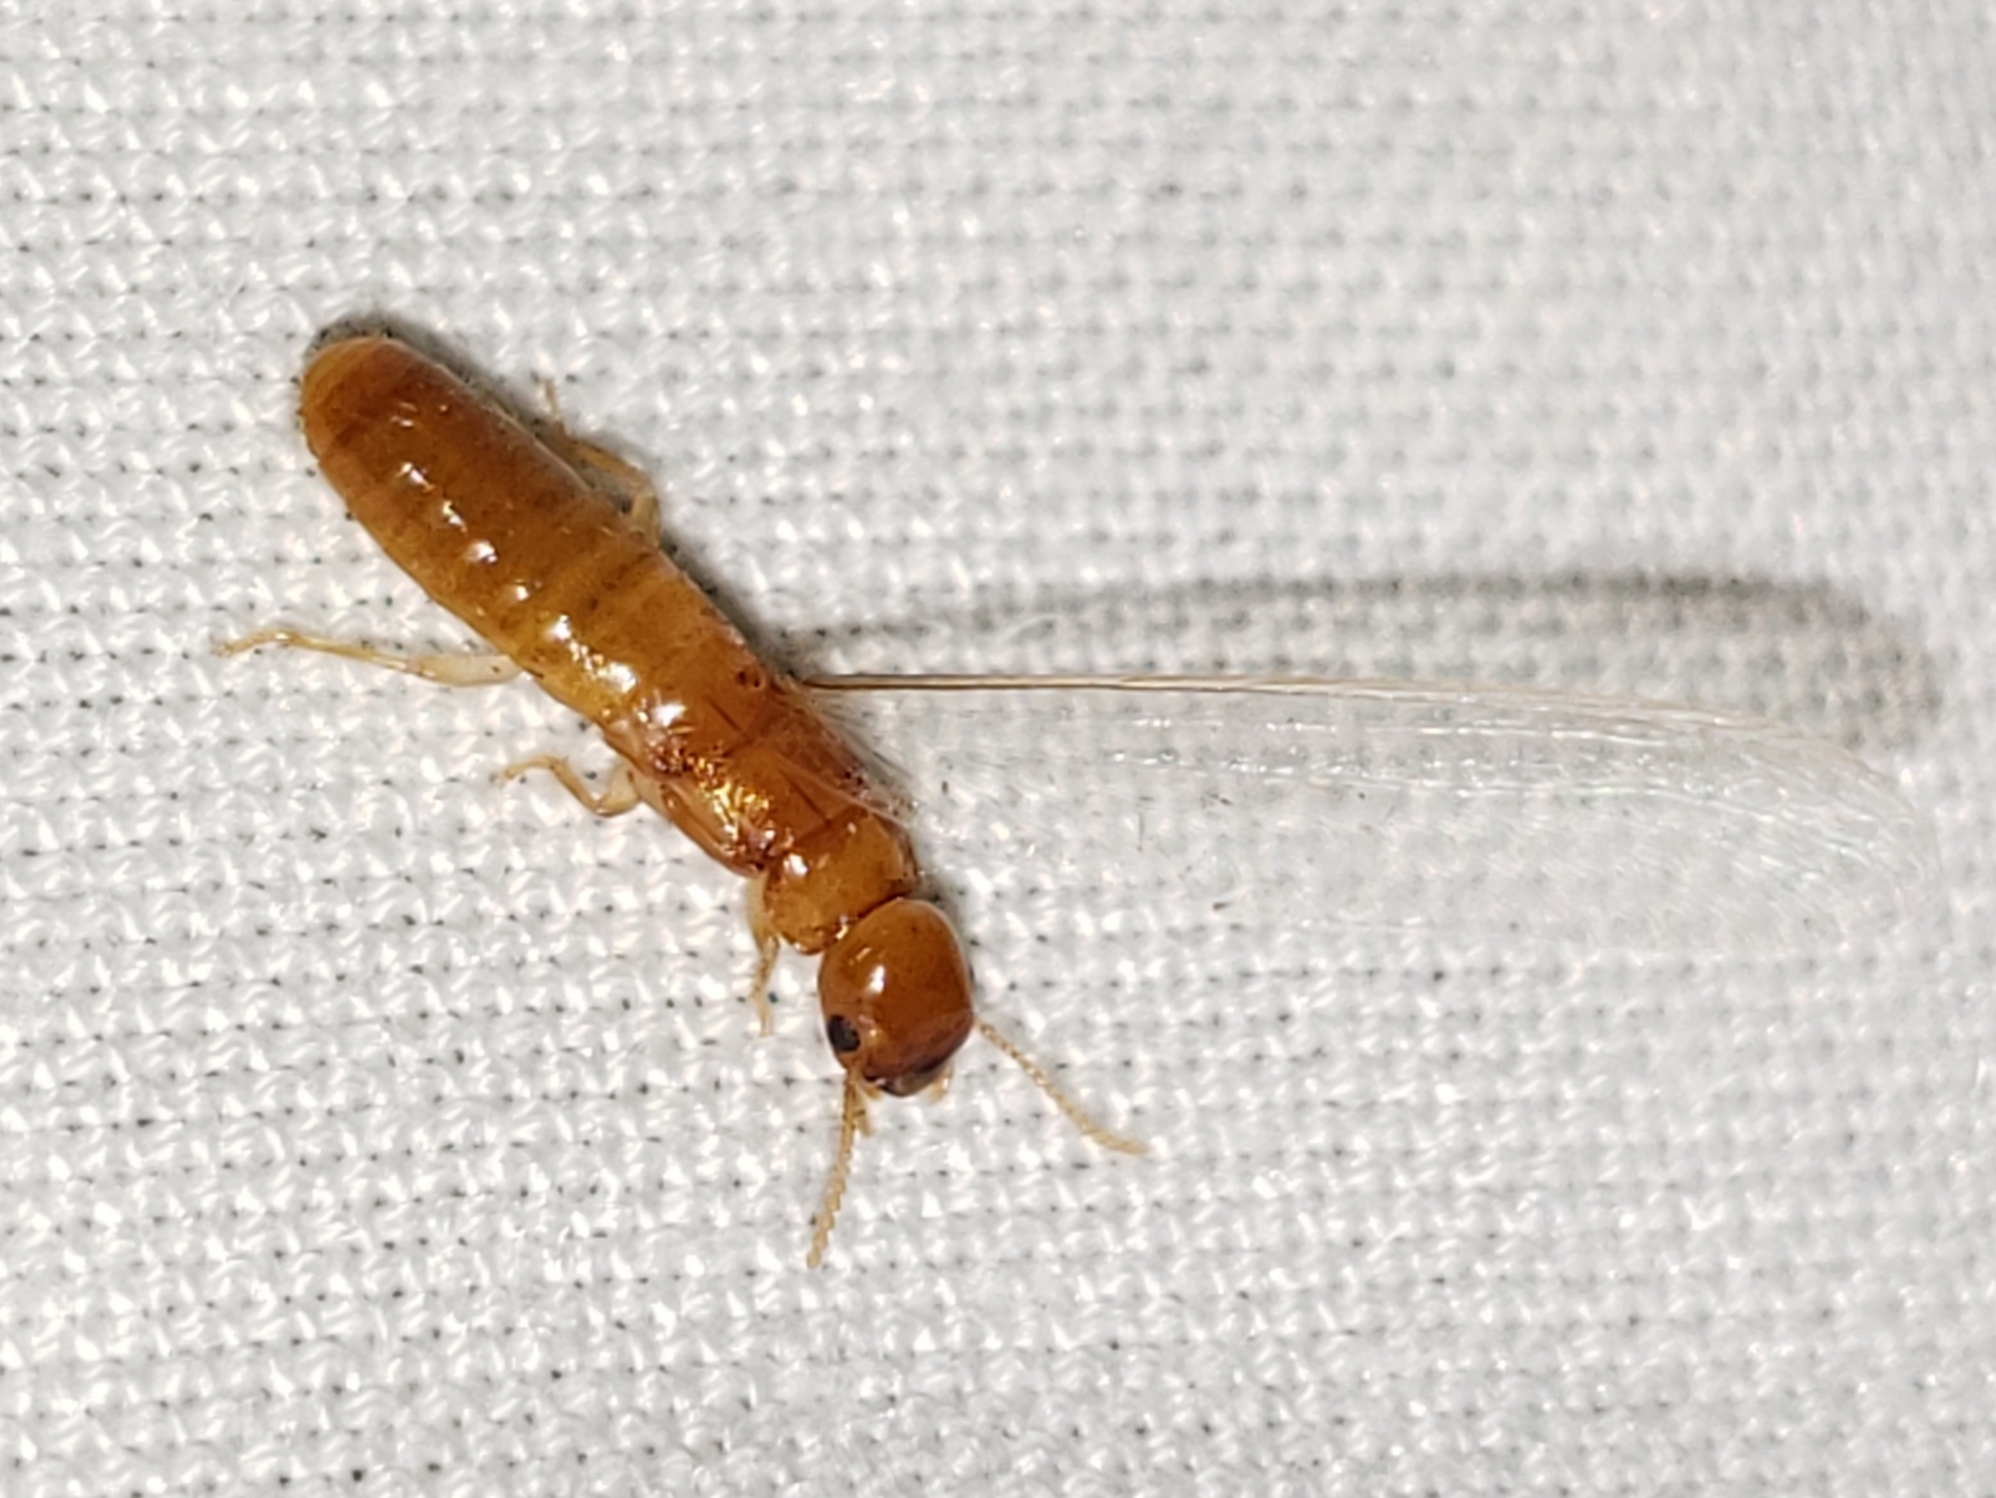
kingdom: Animalia
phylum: Arthropoda
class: Insecta
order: Blattodea
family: Kalotermitidae
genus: Incisitermes
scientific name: Incisitermes snyderi
